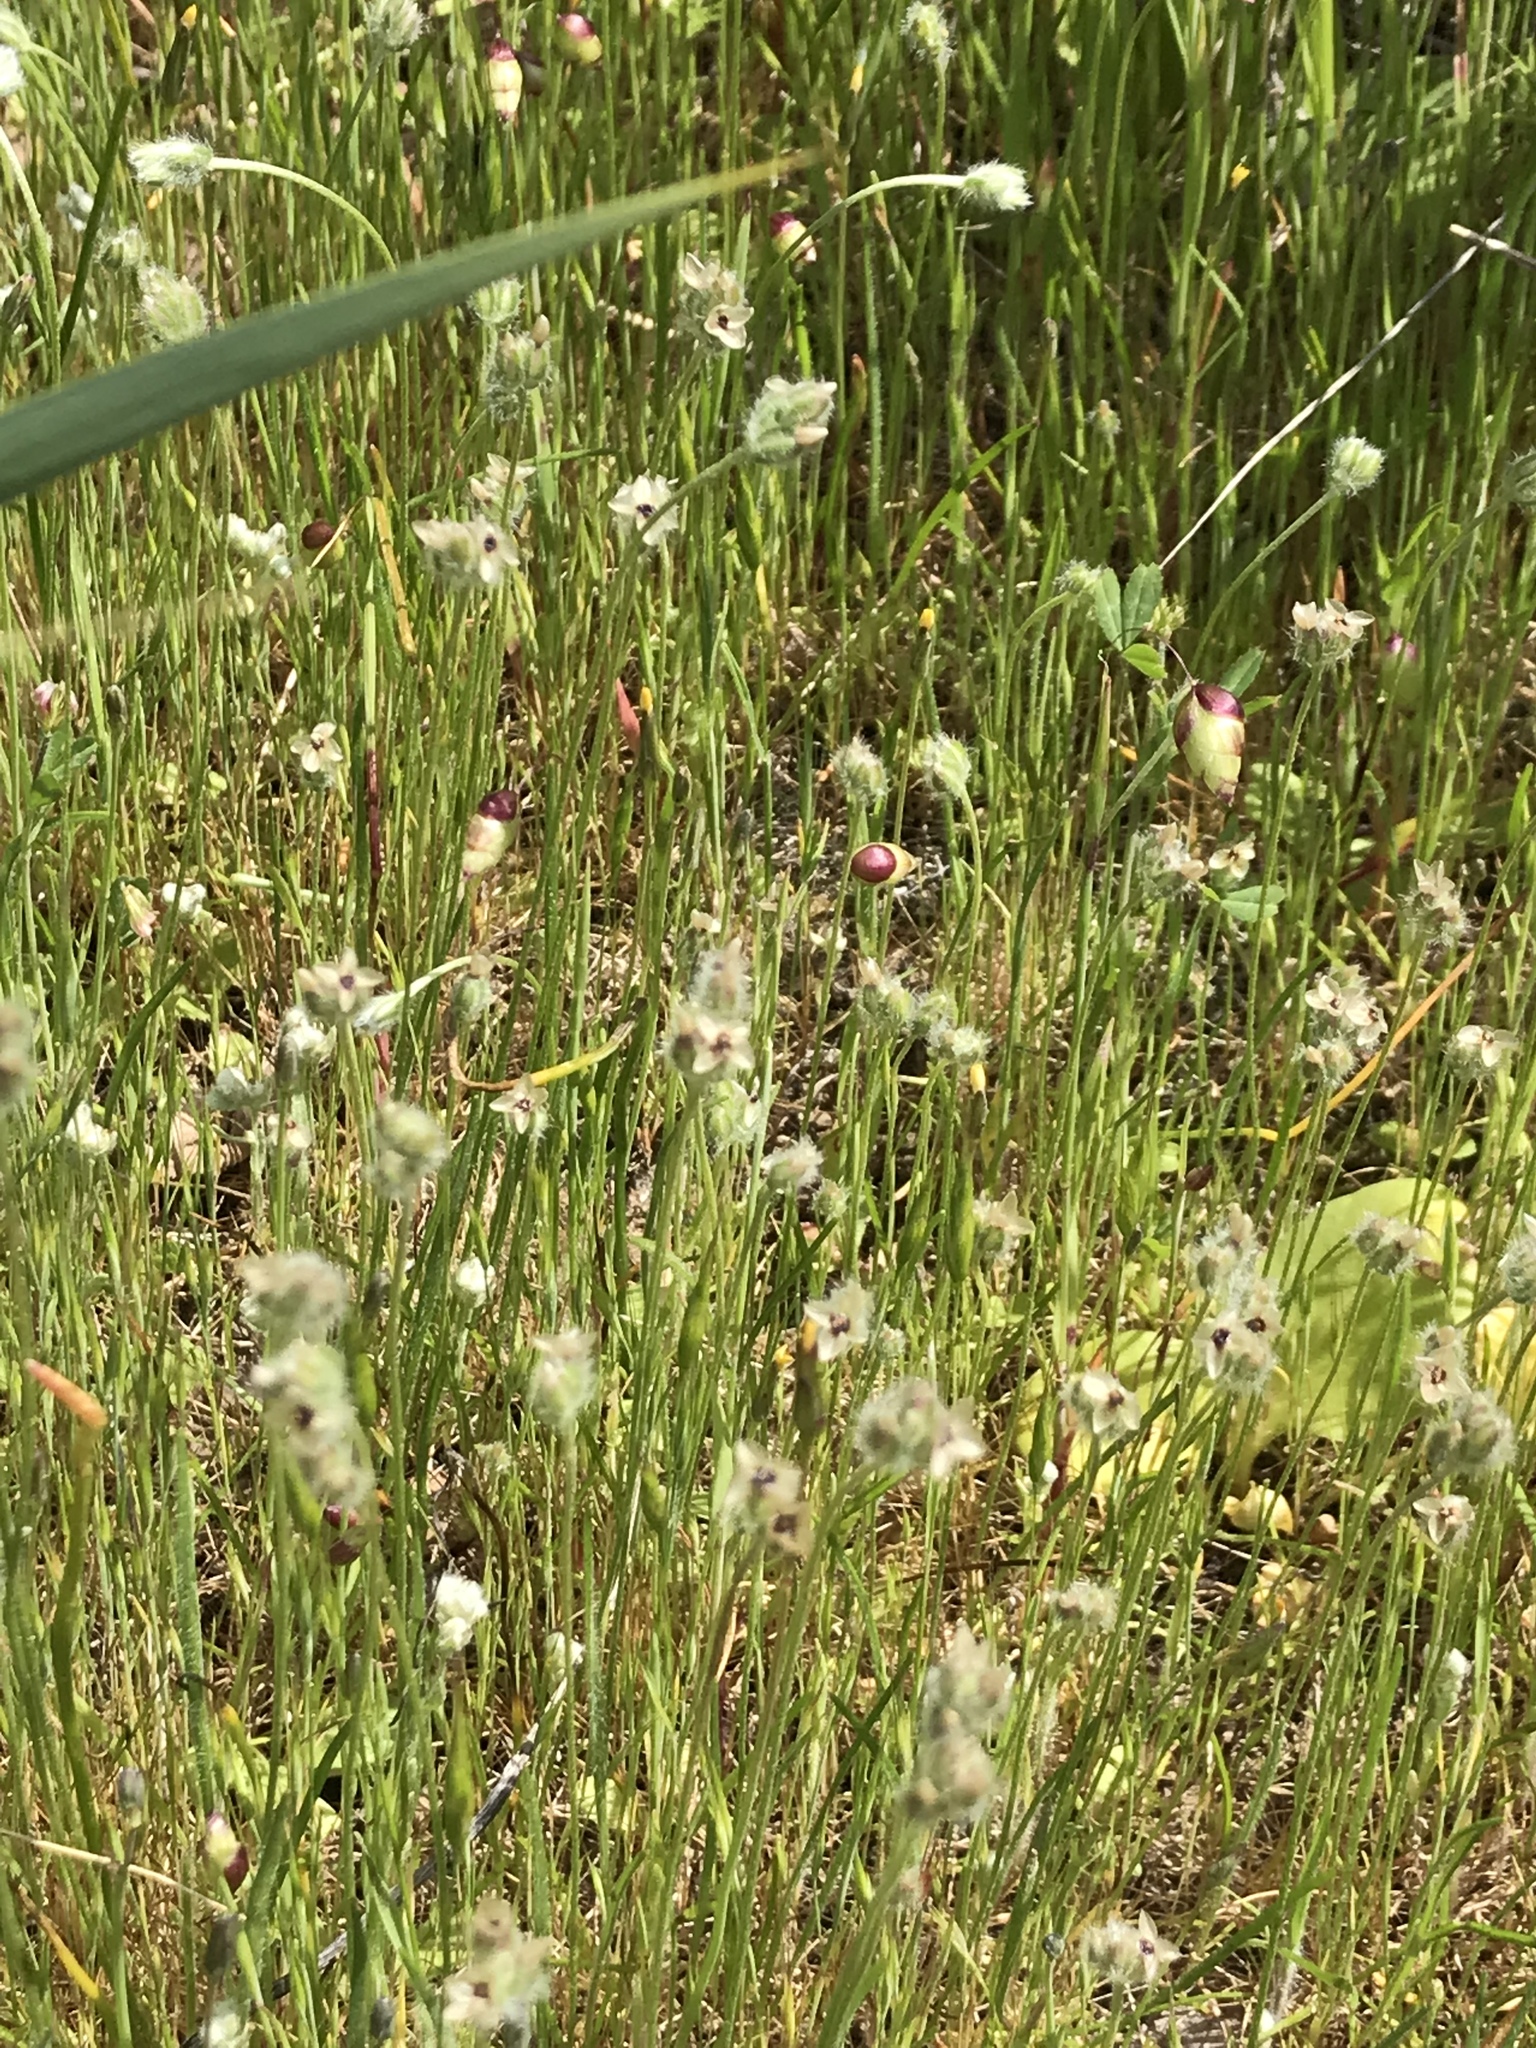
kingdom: Plantae
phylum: Tracheophyta
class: Magnoliopsida
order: Lamiales
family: Plantaginaceae
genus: Plantago
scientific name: Plantago erecta
